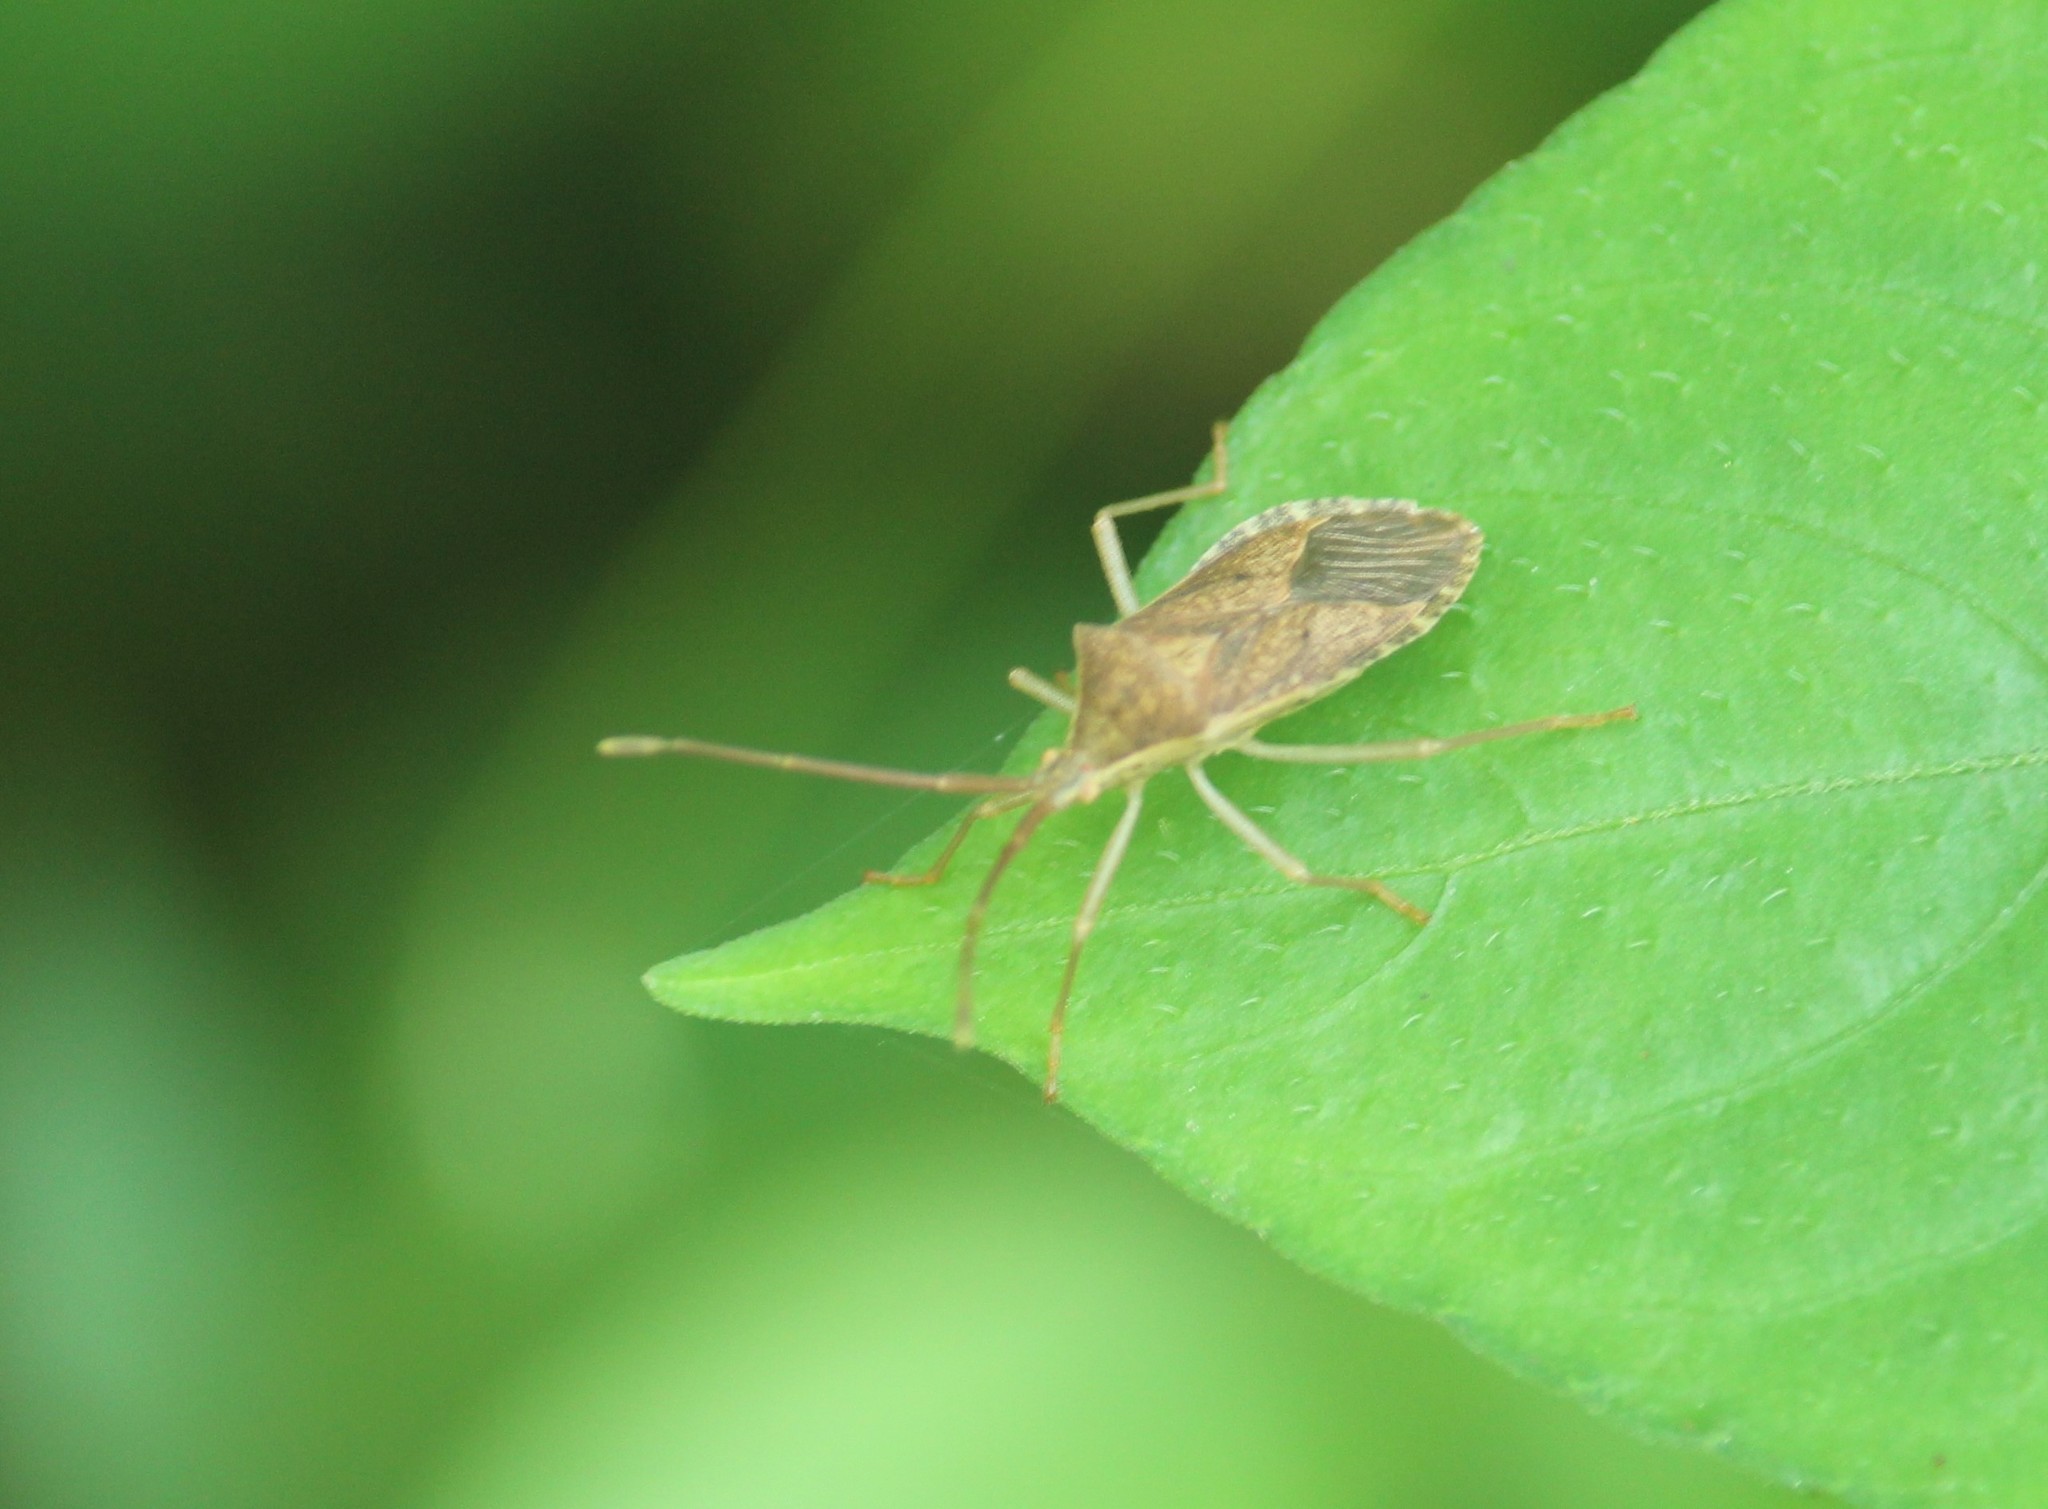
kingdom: Animalia
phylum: Arthropoda
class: Insecta
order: Hemiptera
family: Coreidae
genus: Homoeocerus
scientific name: Homoeocerus serrifer
